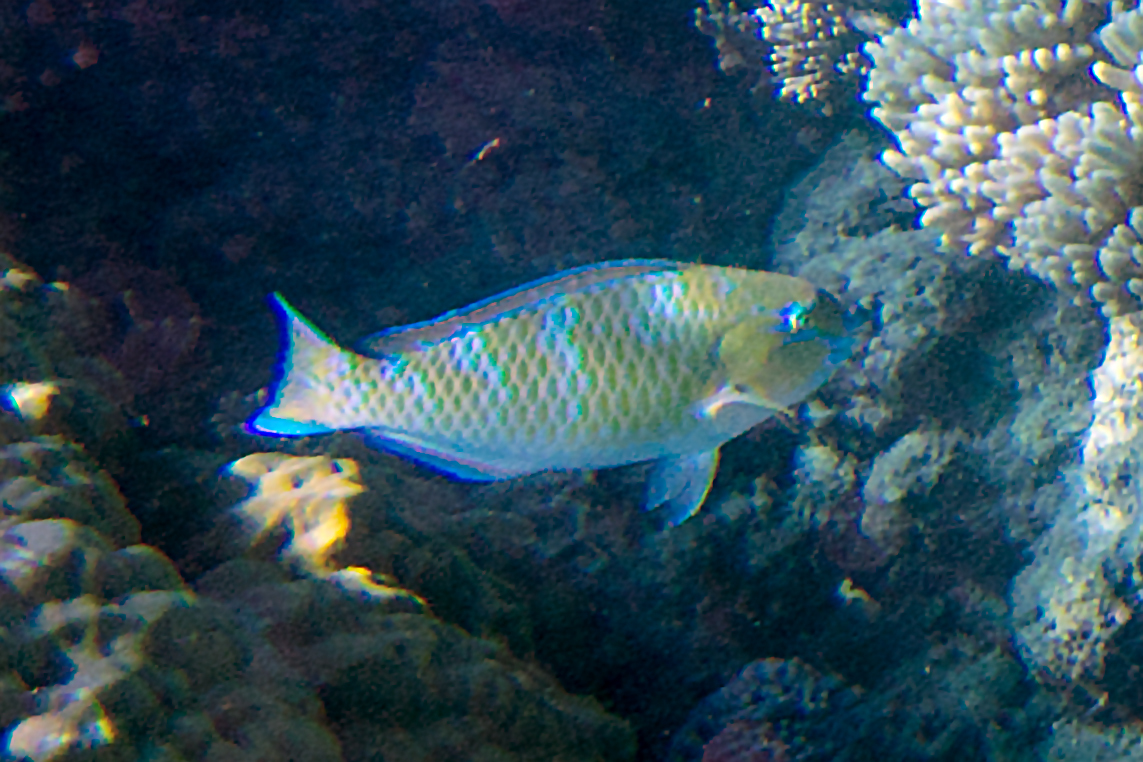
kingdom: Animalia
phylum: Chordata
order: Perciformes
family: Scaridae
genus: Scarus
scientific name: Scarus ghobban
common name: Blue-barred parrotfish
